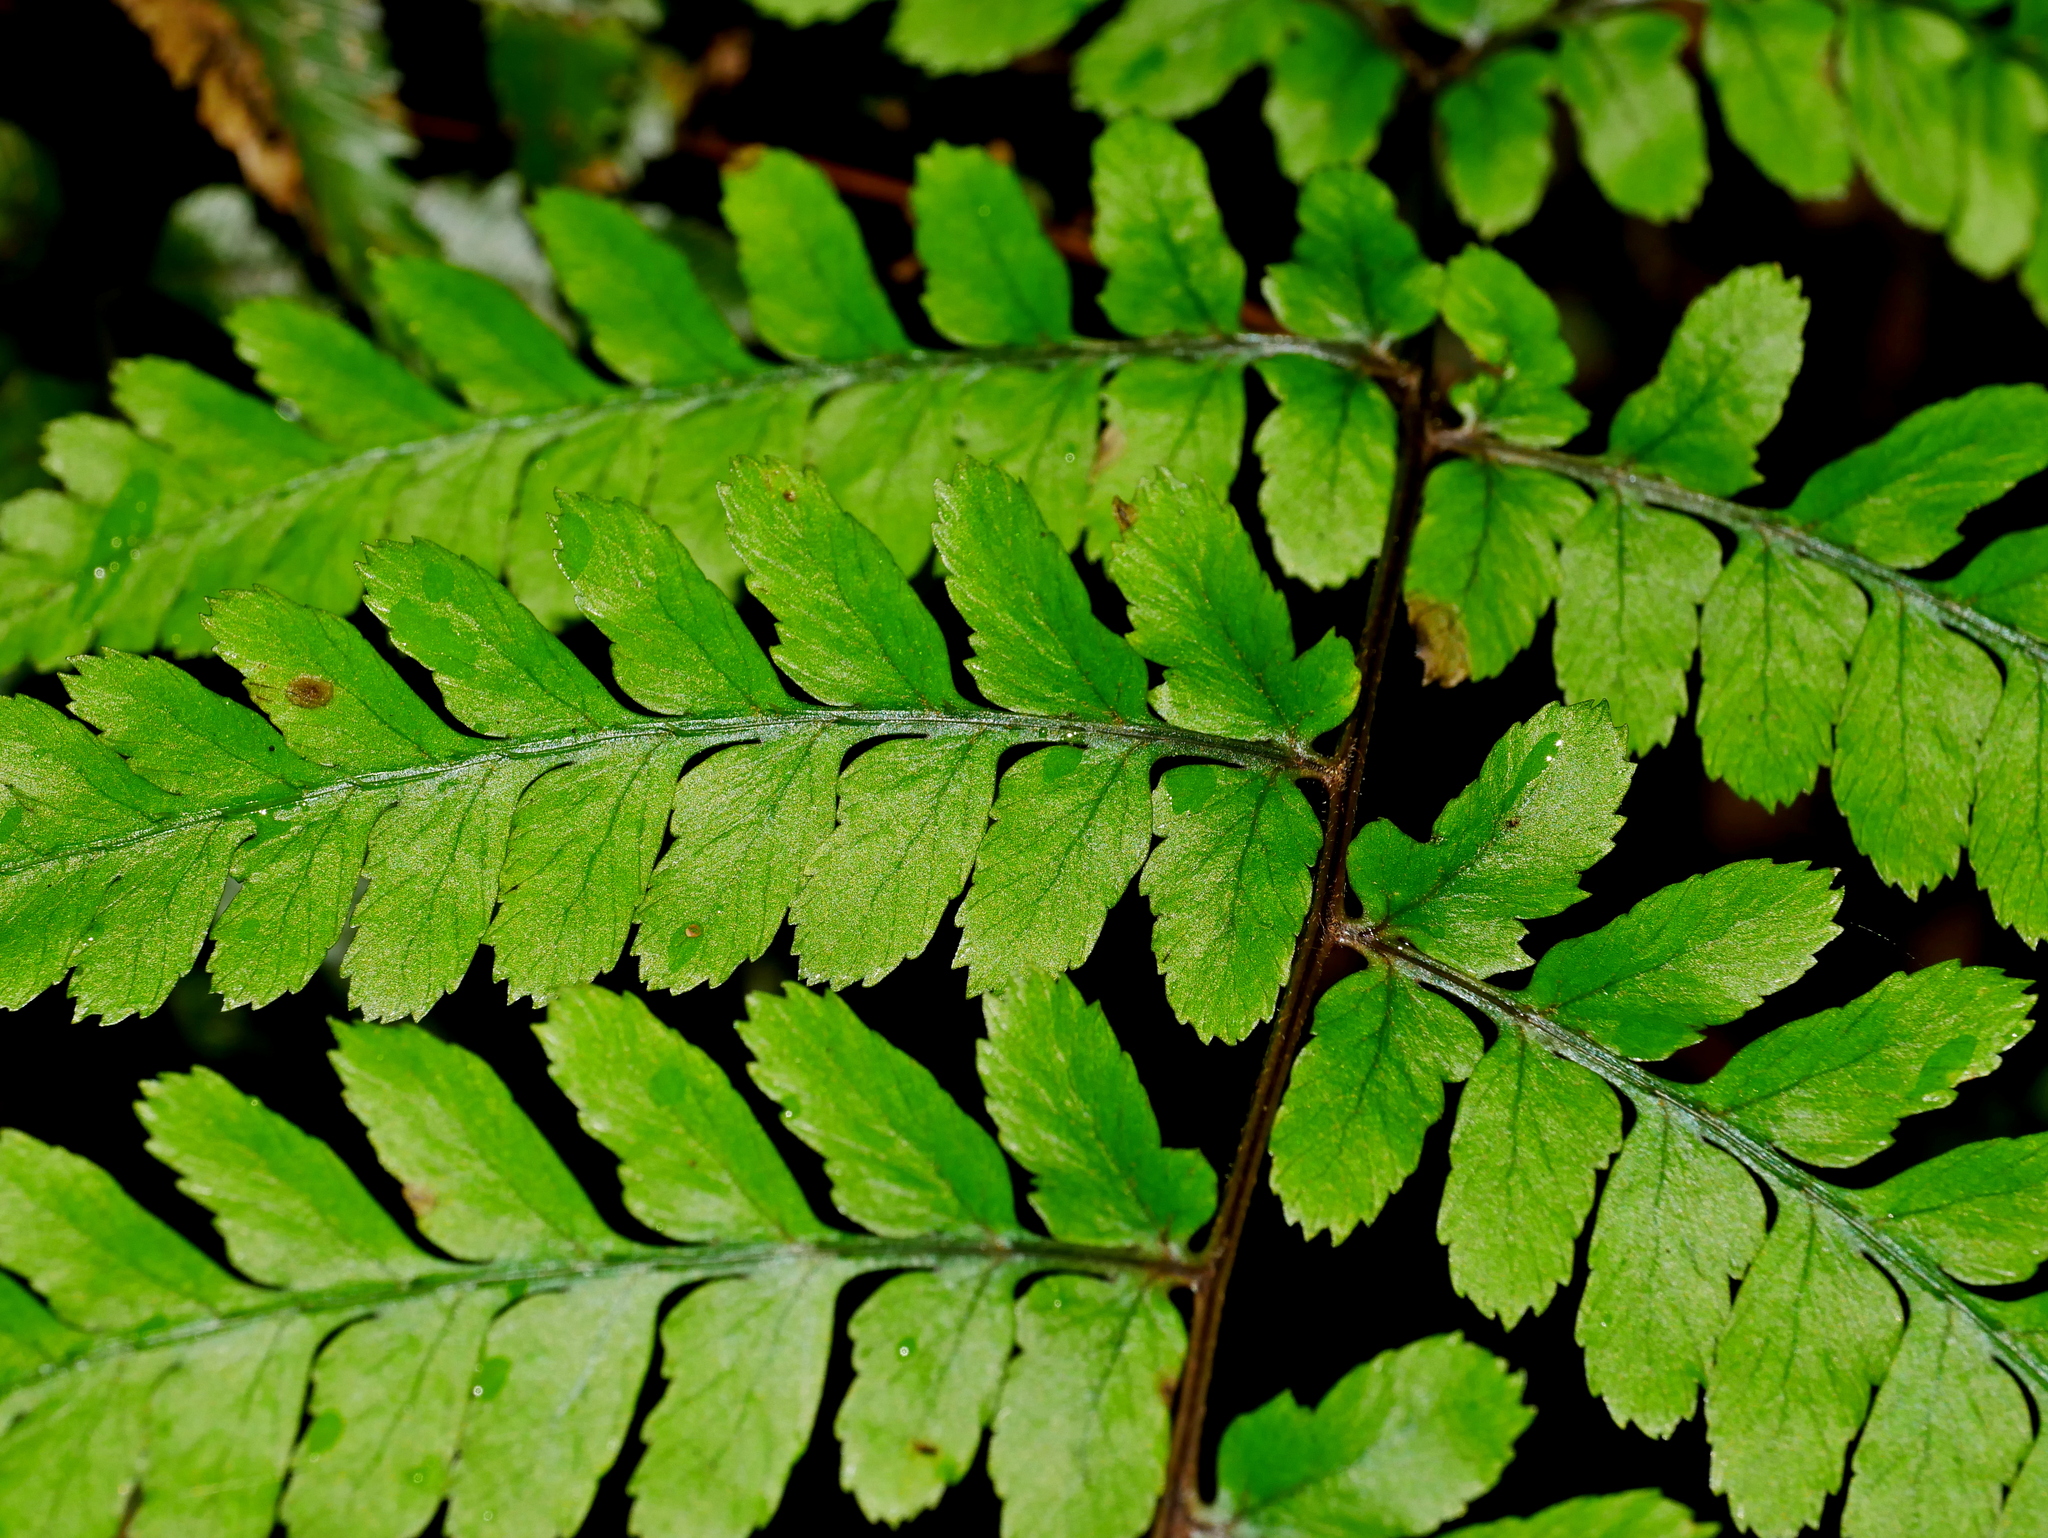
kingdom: Plantae
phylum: Tracheophyta
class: Polypodiopsida
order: Polypodiales
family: Athyriaceae
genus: Athyrium
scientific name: Athyrium arisanense
